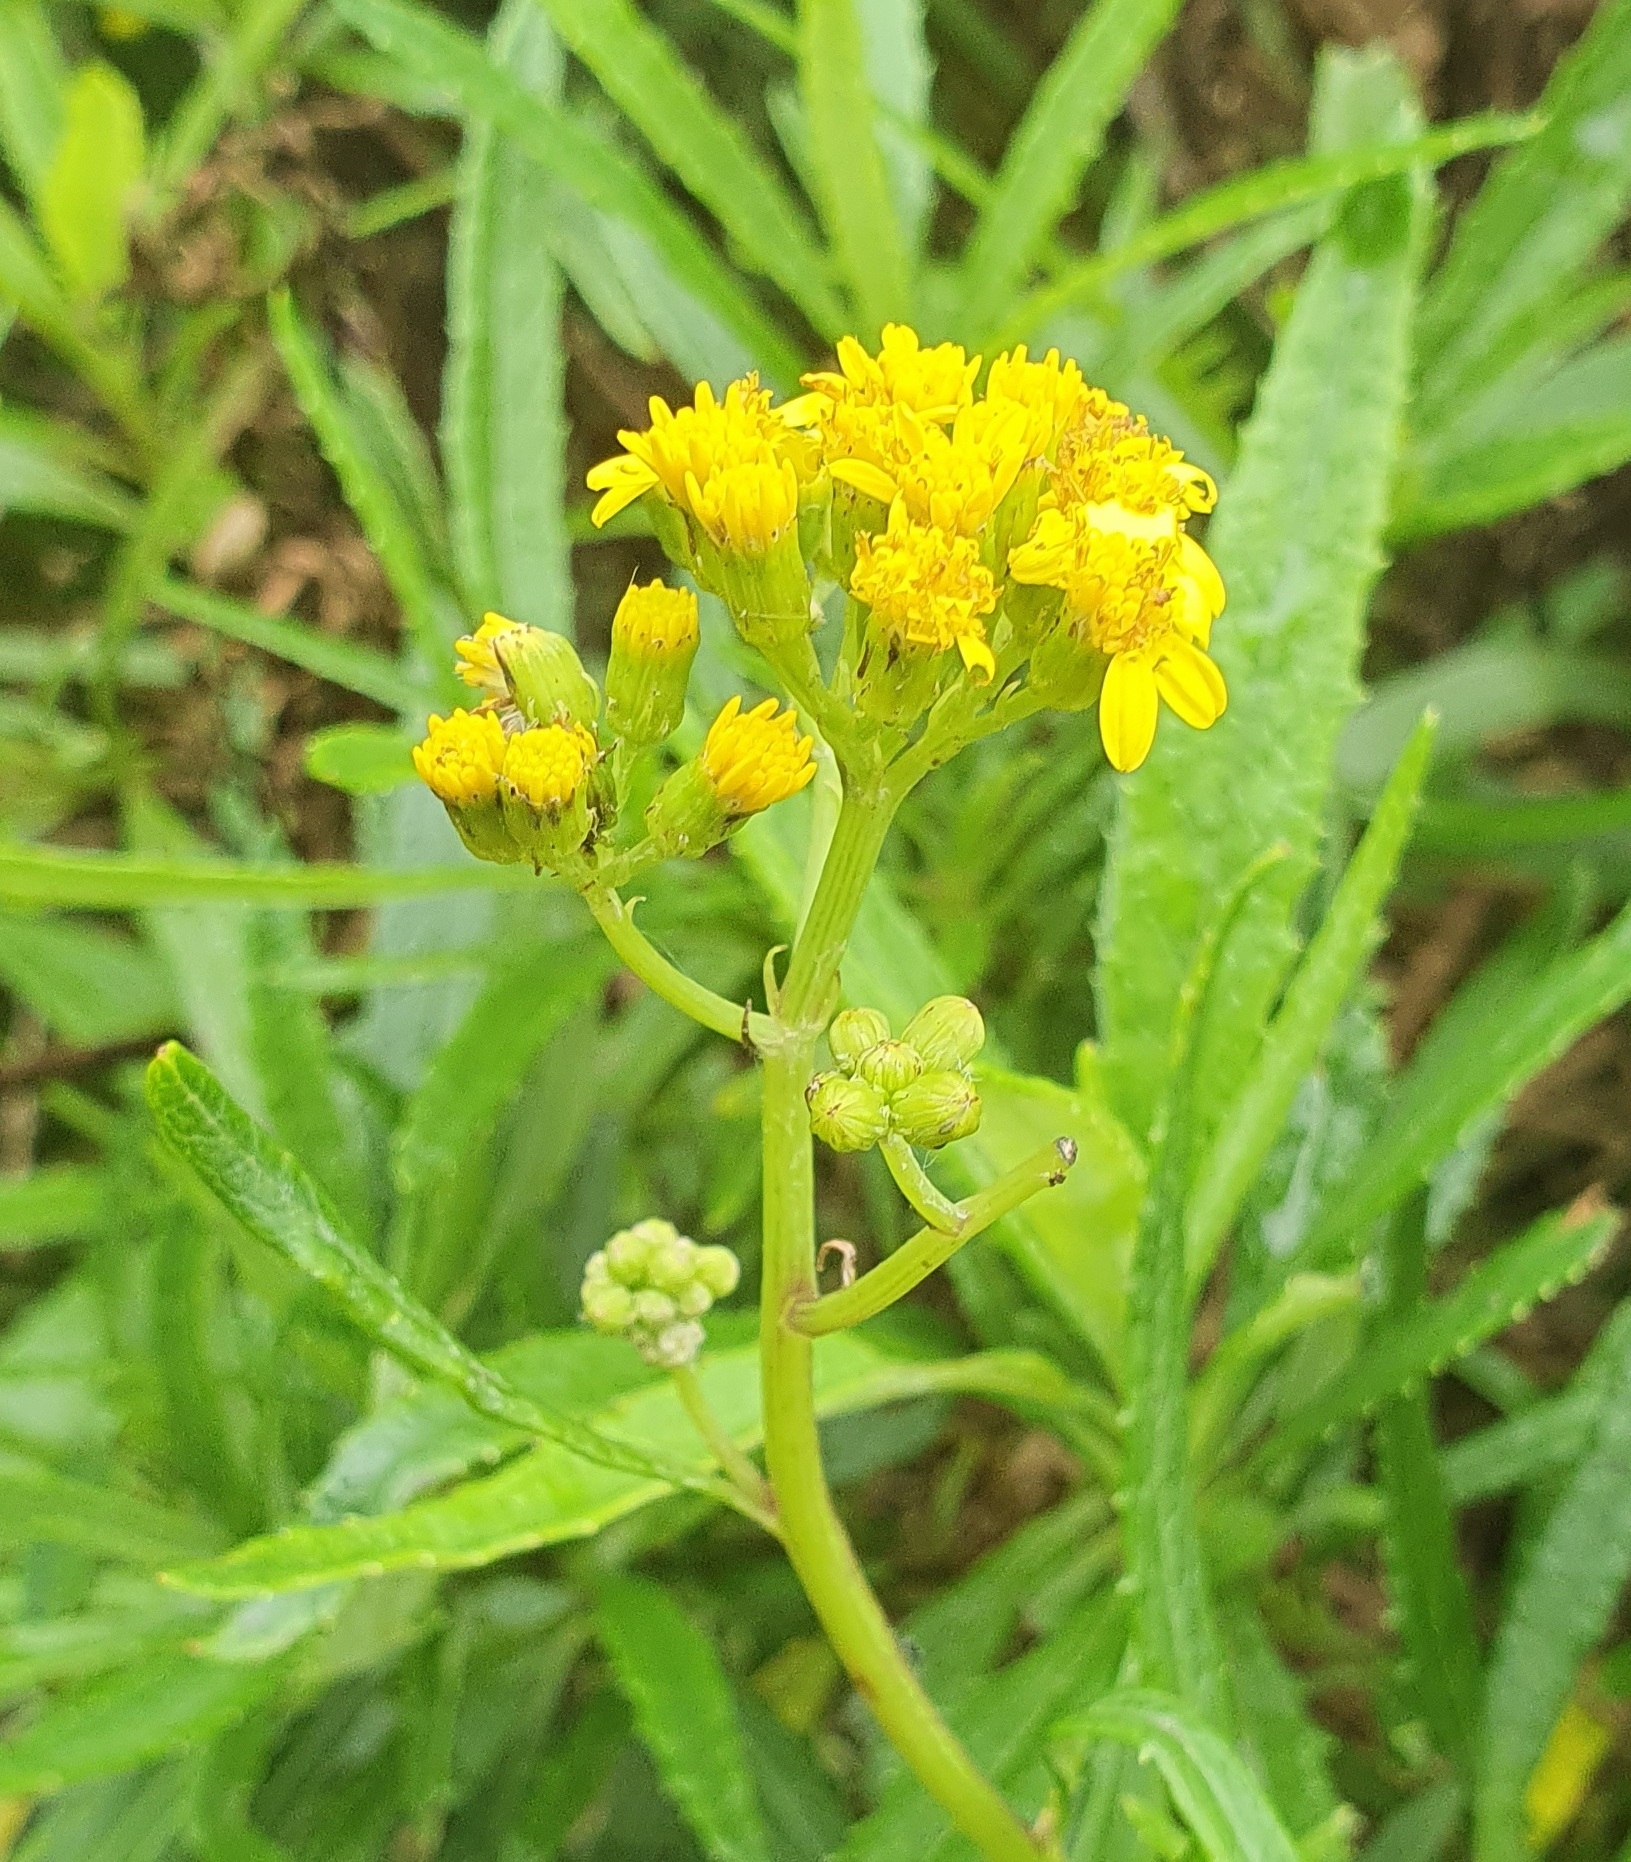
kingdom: Plantae
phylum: Tracheophyta
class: Magnoliopsida
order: Asterales
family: Asteraceae
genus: Senecio
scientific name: Senecio linearifolius
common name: Fireweed groundsel
